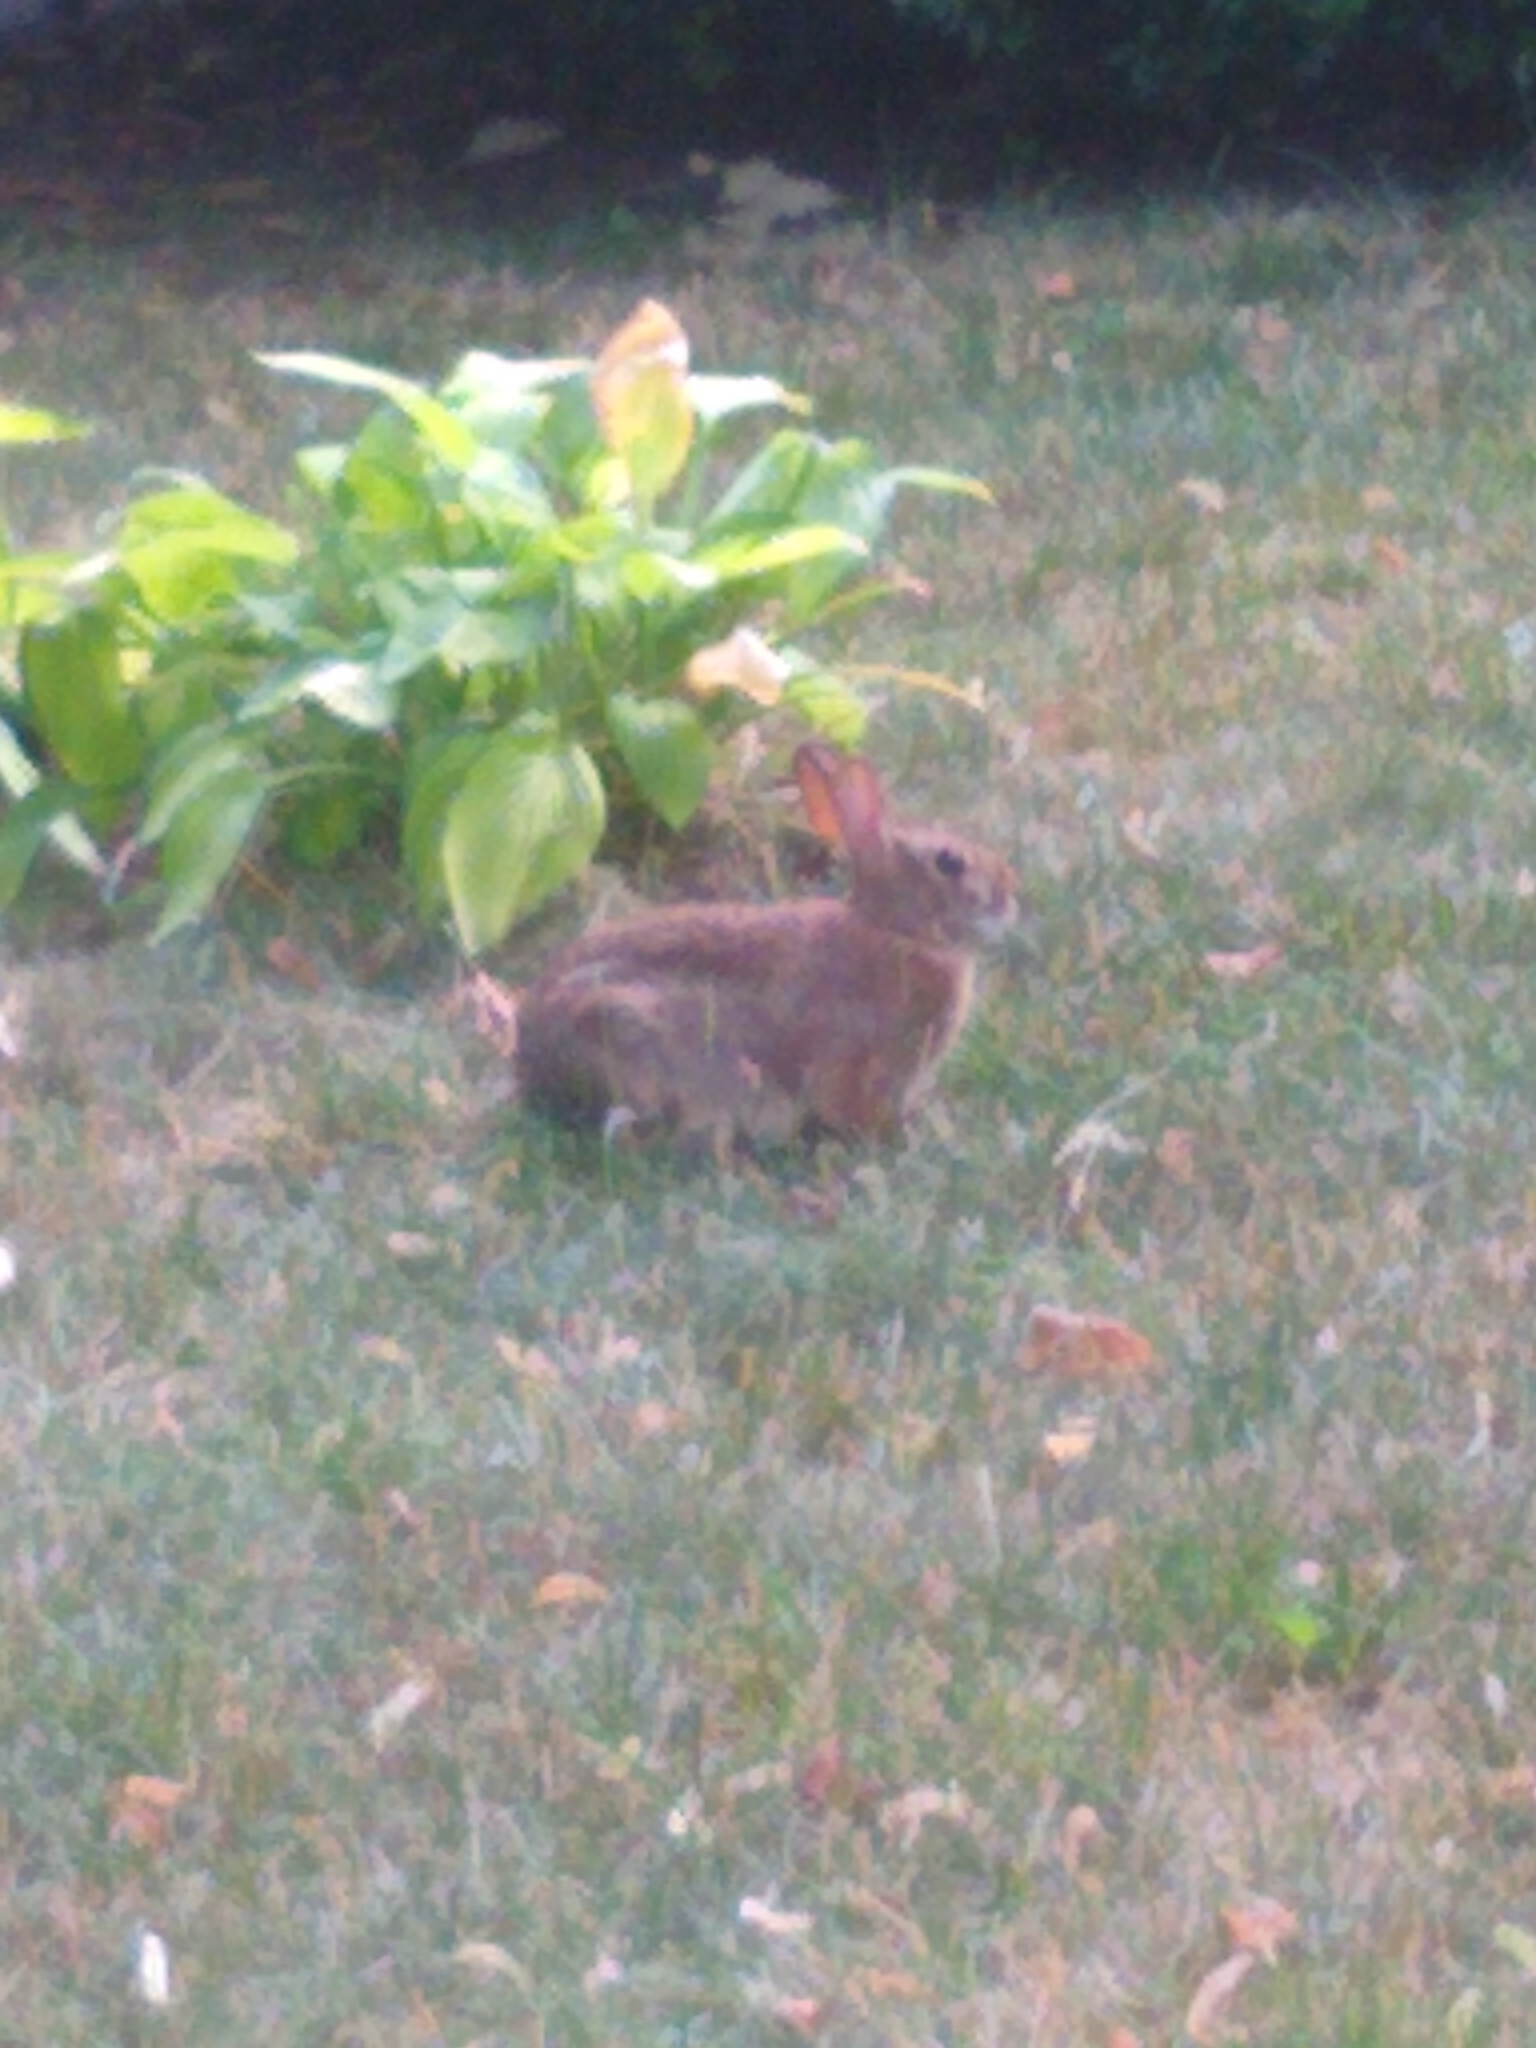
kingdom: Animalia
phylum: Chordata
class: Mammalia
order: Lagomorpha
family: Leporidae
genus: Sylvilagus
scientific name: Sylvilagus floridanus
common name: Eastern cottontail
